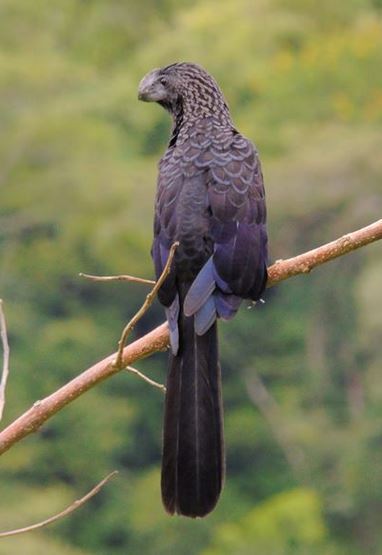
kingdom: Animalia
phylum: Chordata
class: Aves
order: Cuculiformes
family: Cuculidae
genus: Crotophaga
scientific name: Crotophaga ani
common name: Smooth-billed ani
